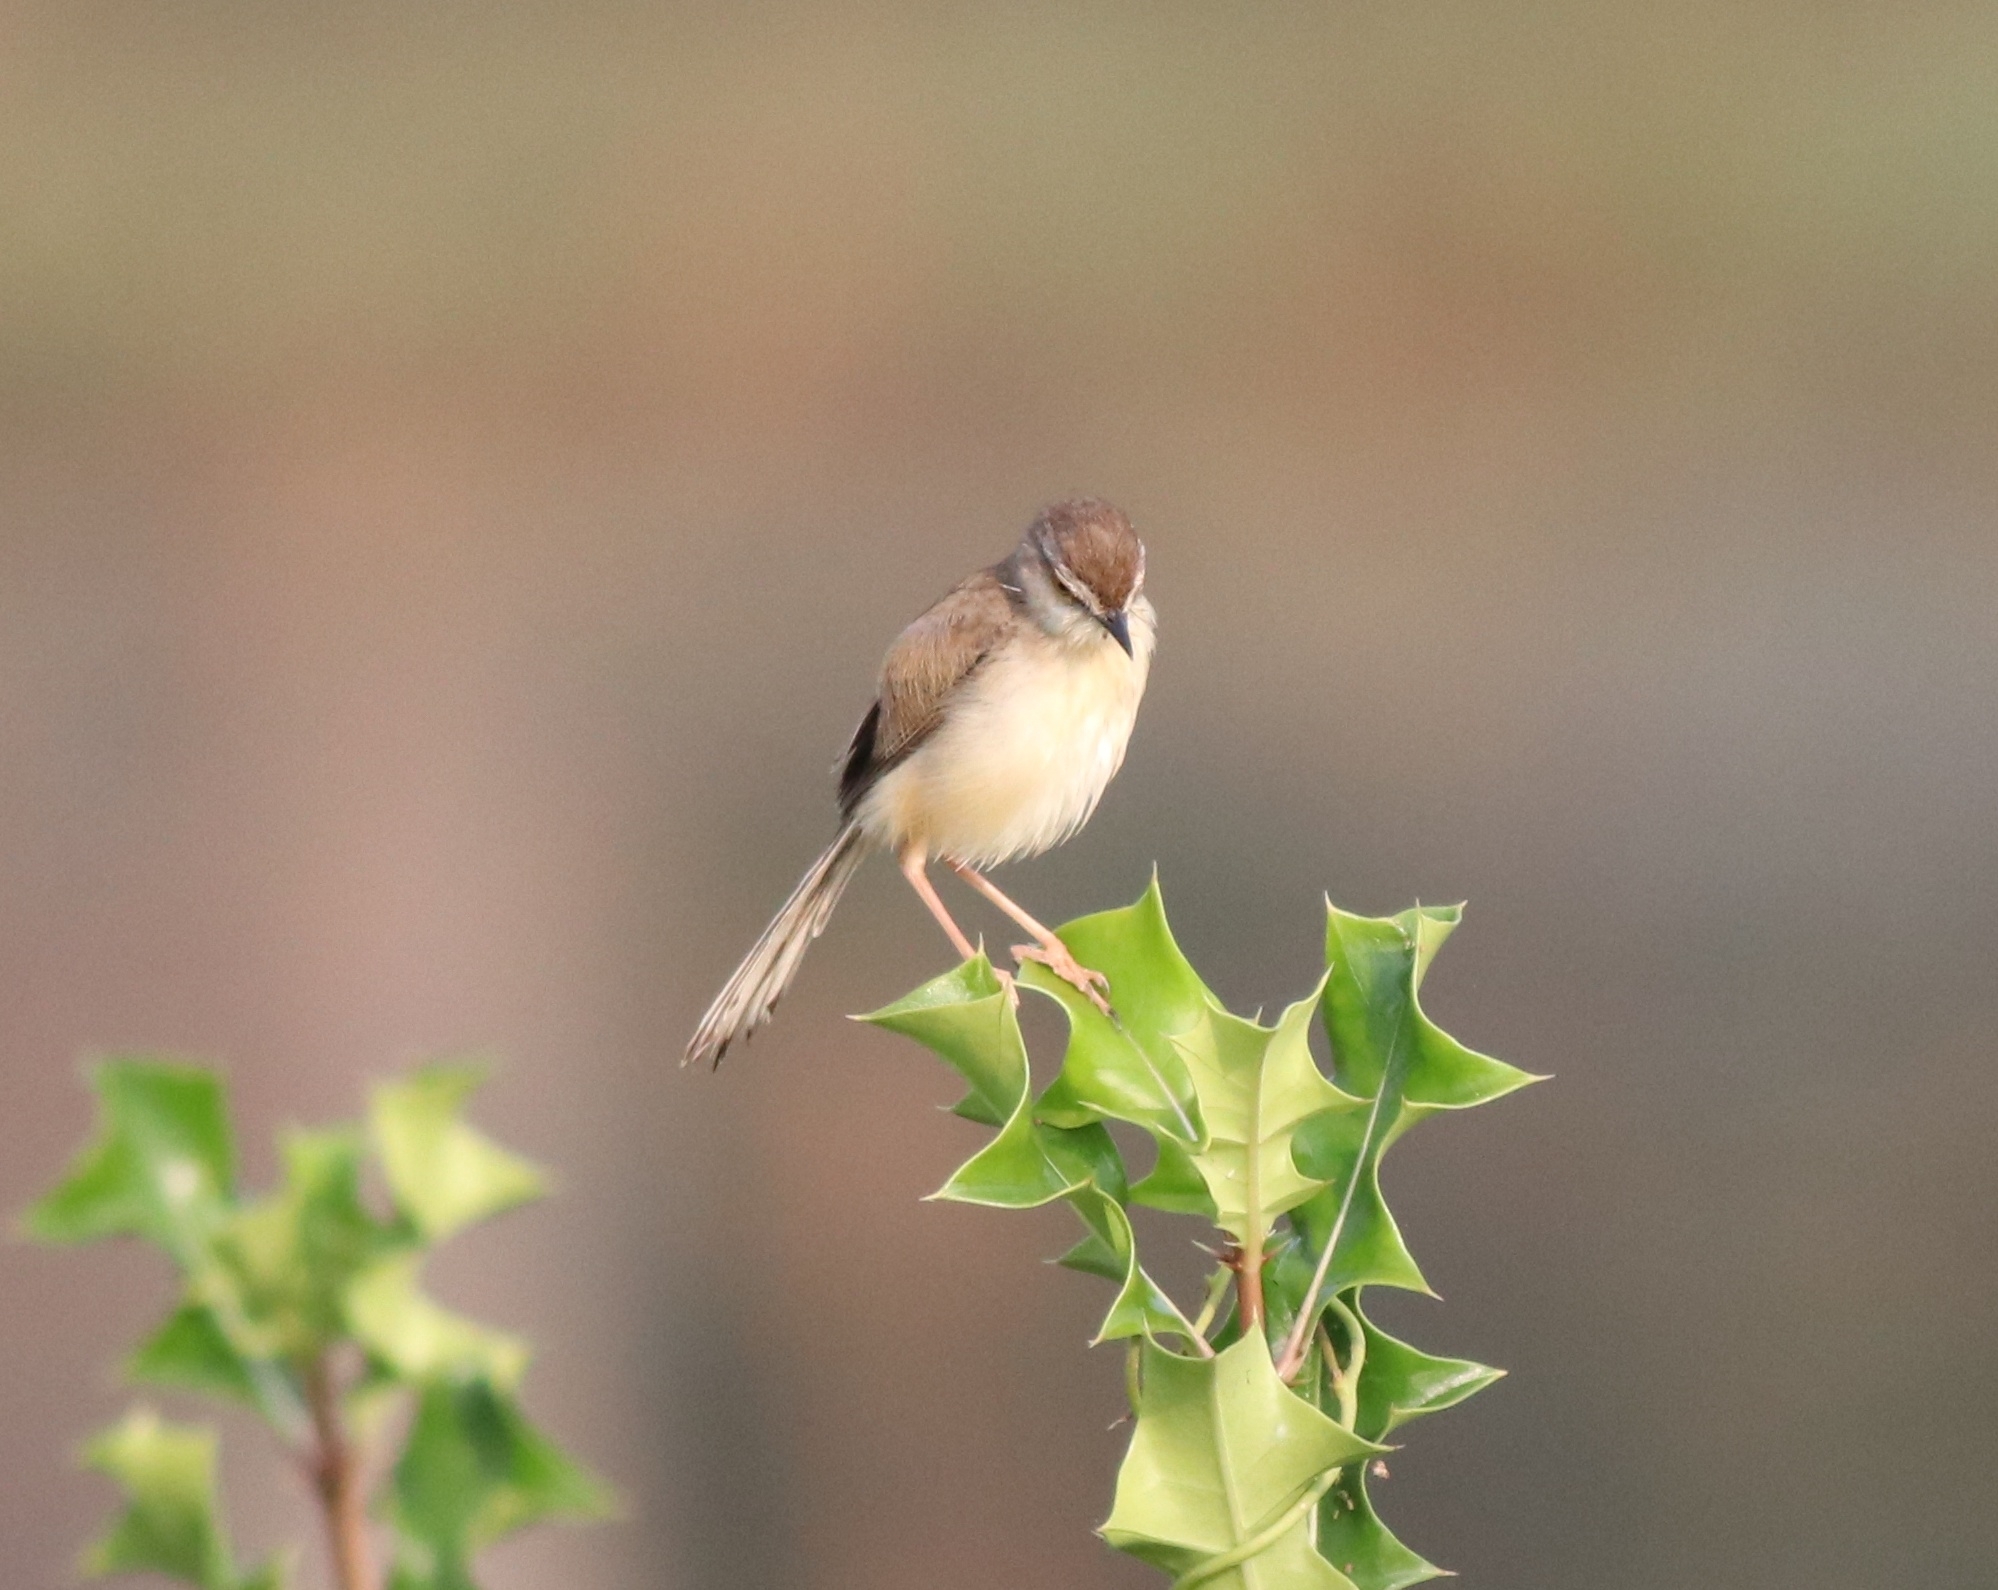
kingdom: Animalia
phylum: Chordata
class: Aves
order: Passeriformes
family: Cisticolidae
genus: Prinia
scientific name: Prinia inornata
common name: Plain prinia
